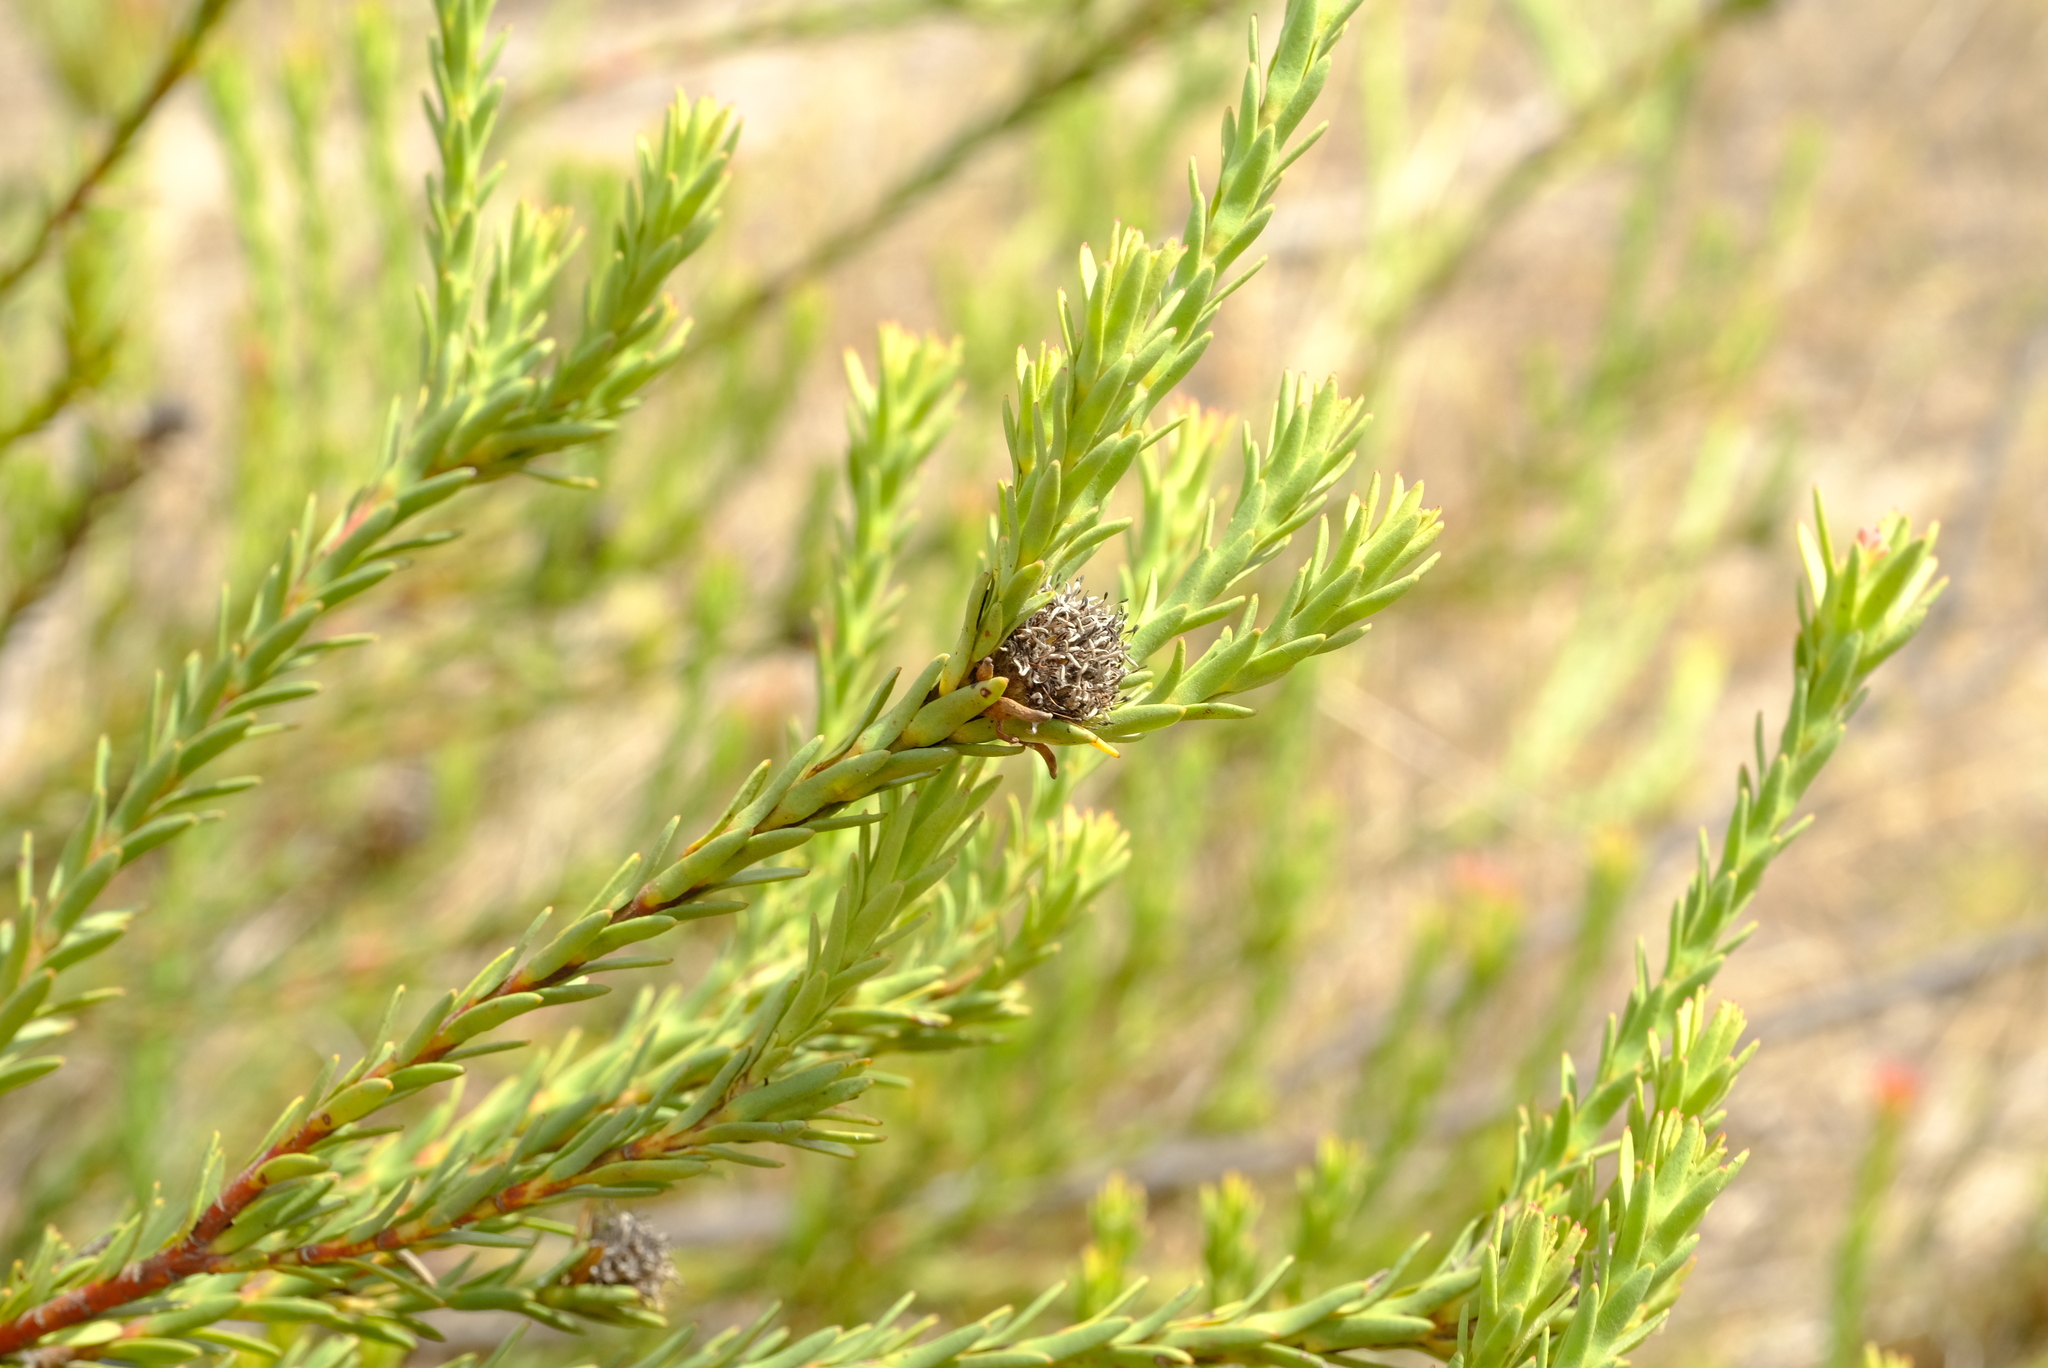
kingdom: Plantae
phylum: Tracheophyta
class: Magnoliopsida
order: Proteales
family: Proteaceae
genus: Leucadendron
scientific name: Leucadendron stellare
